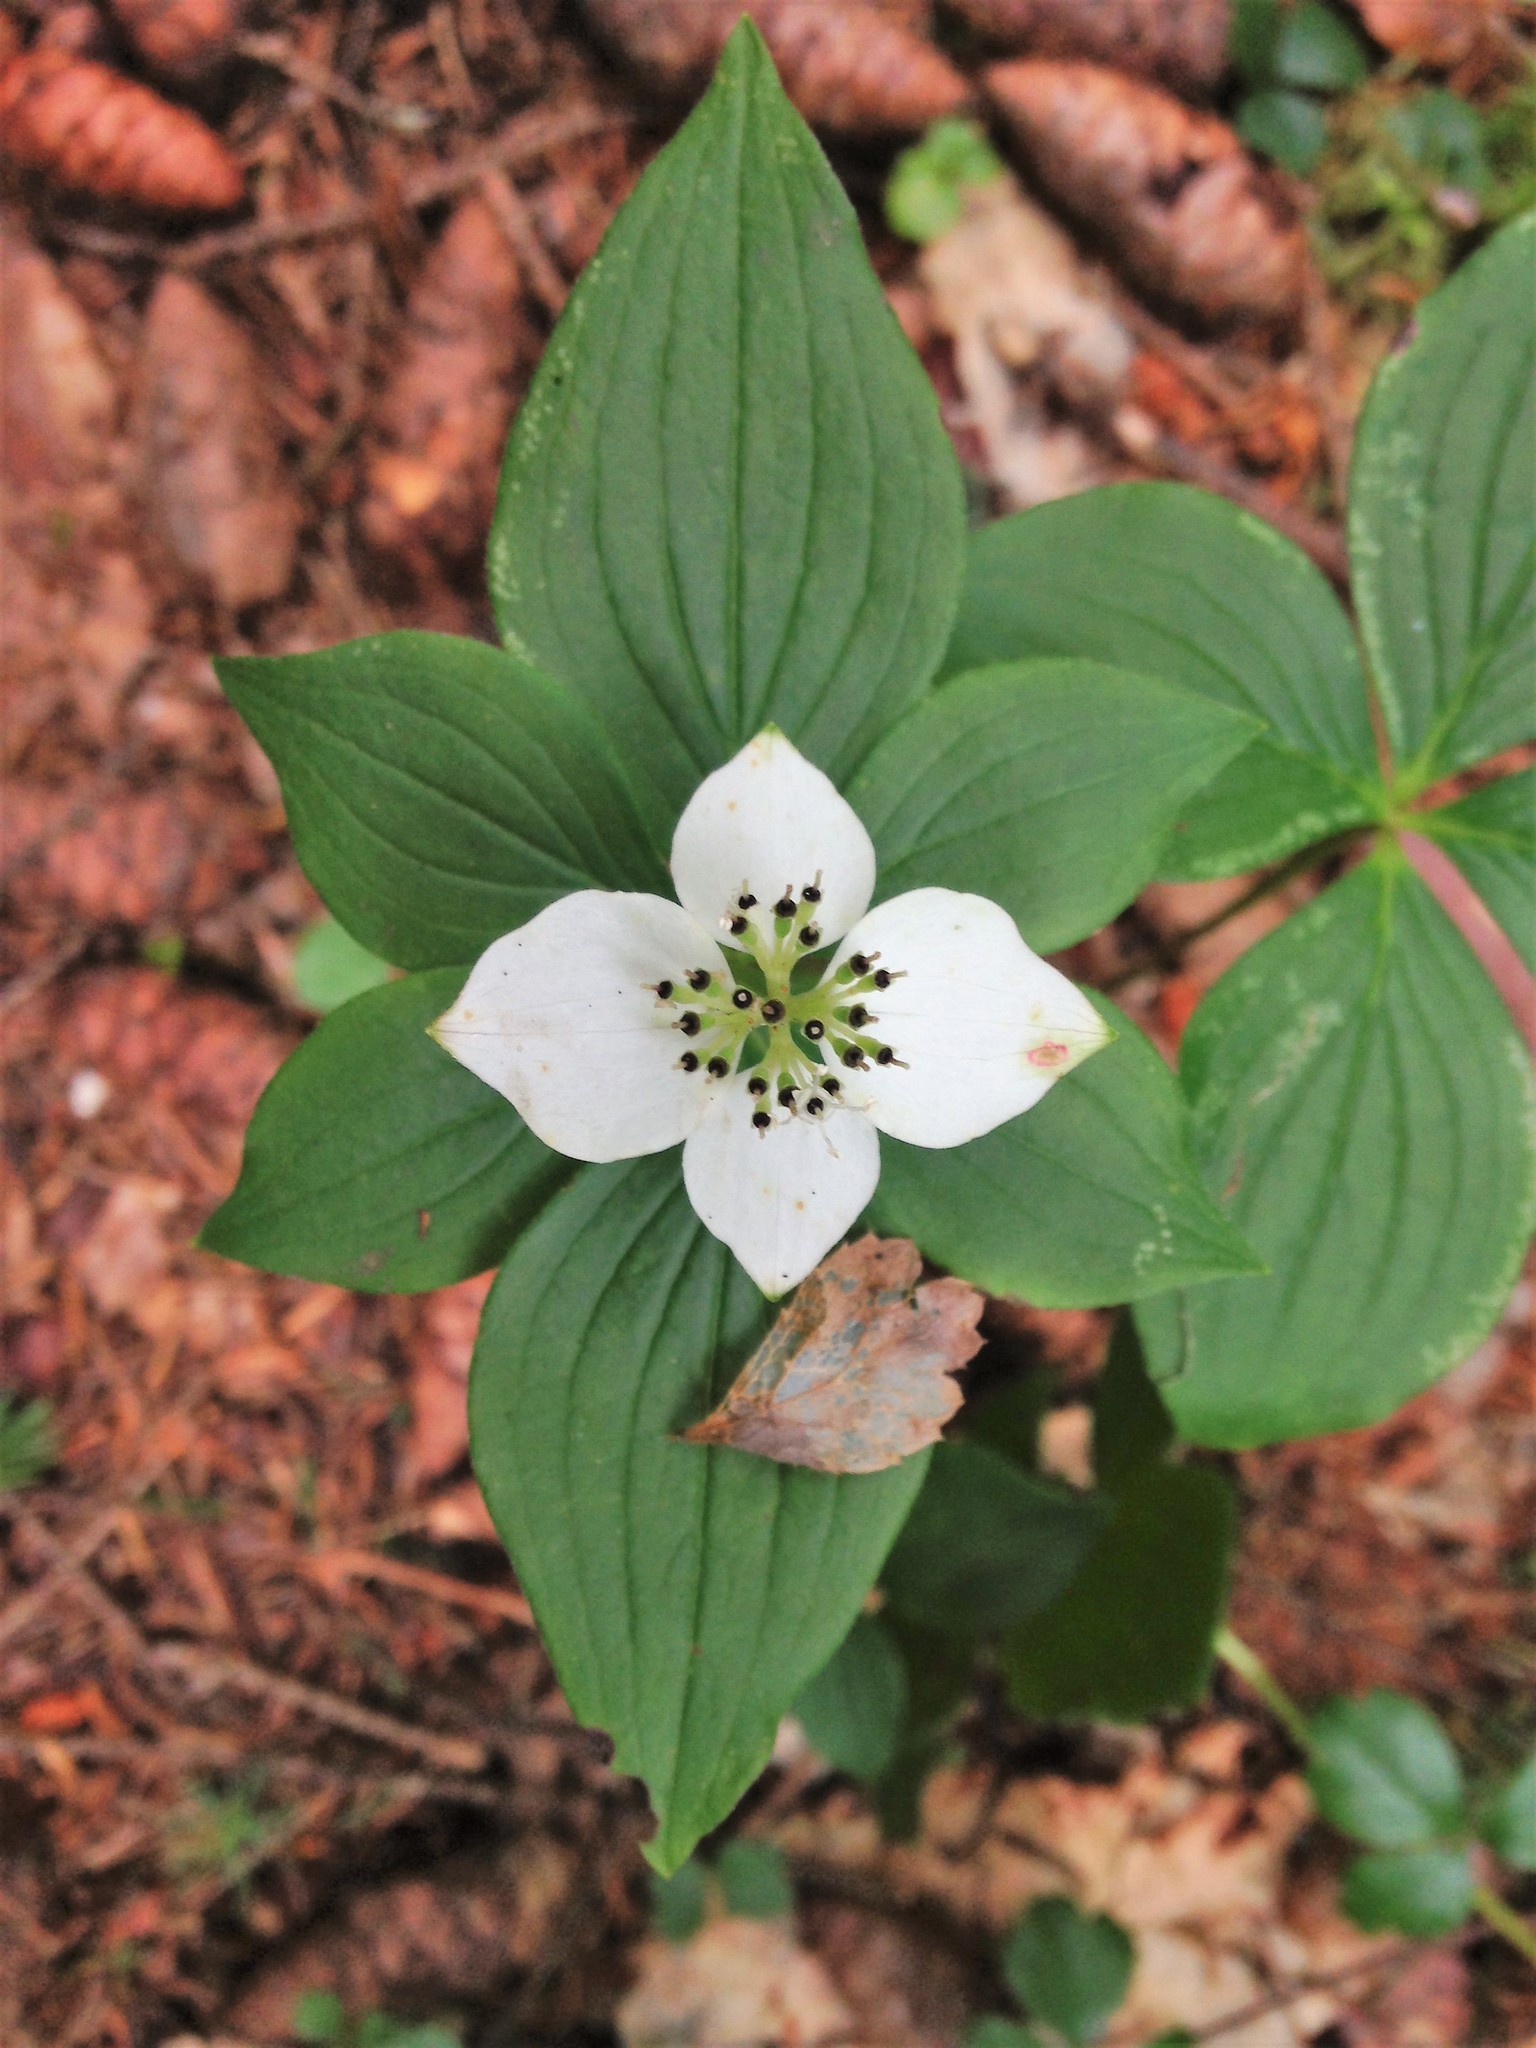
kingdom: Plantae
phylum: Tracheophyta
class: Magnoliopsida
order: Cornales
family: Cornaceae
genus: Cornus
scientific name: Cornus canadensis
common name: Creeping dogwood
